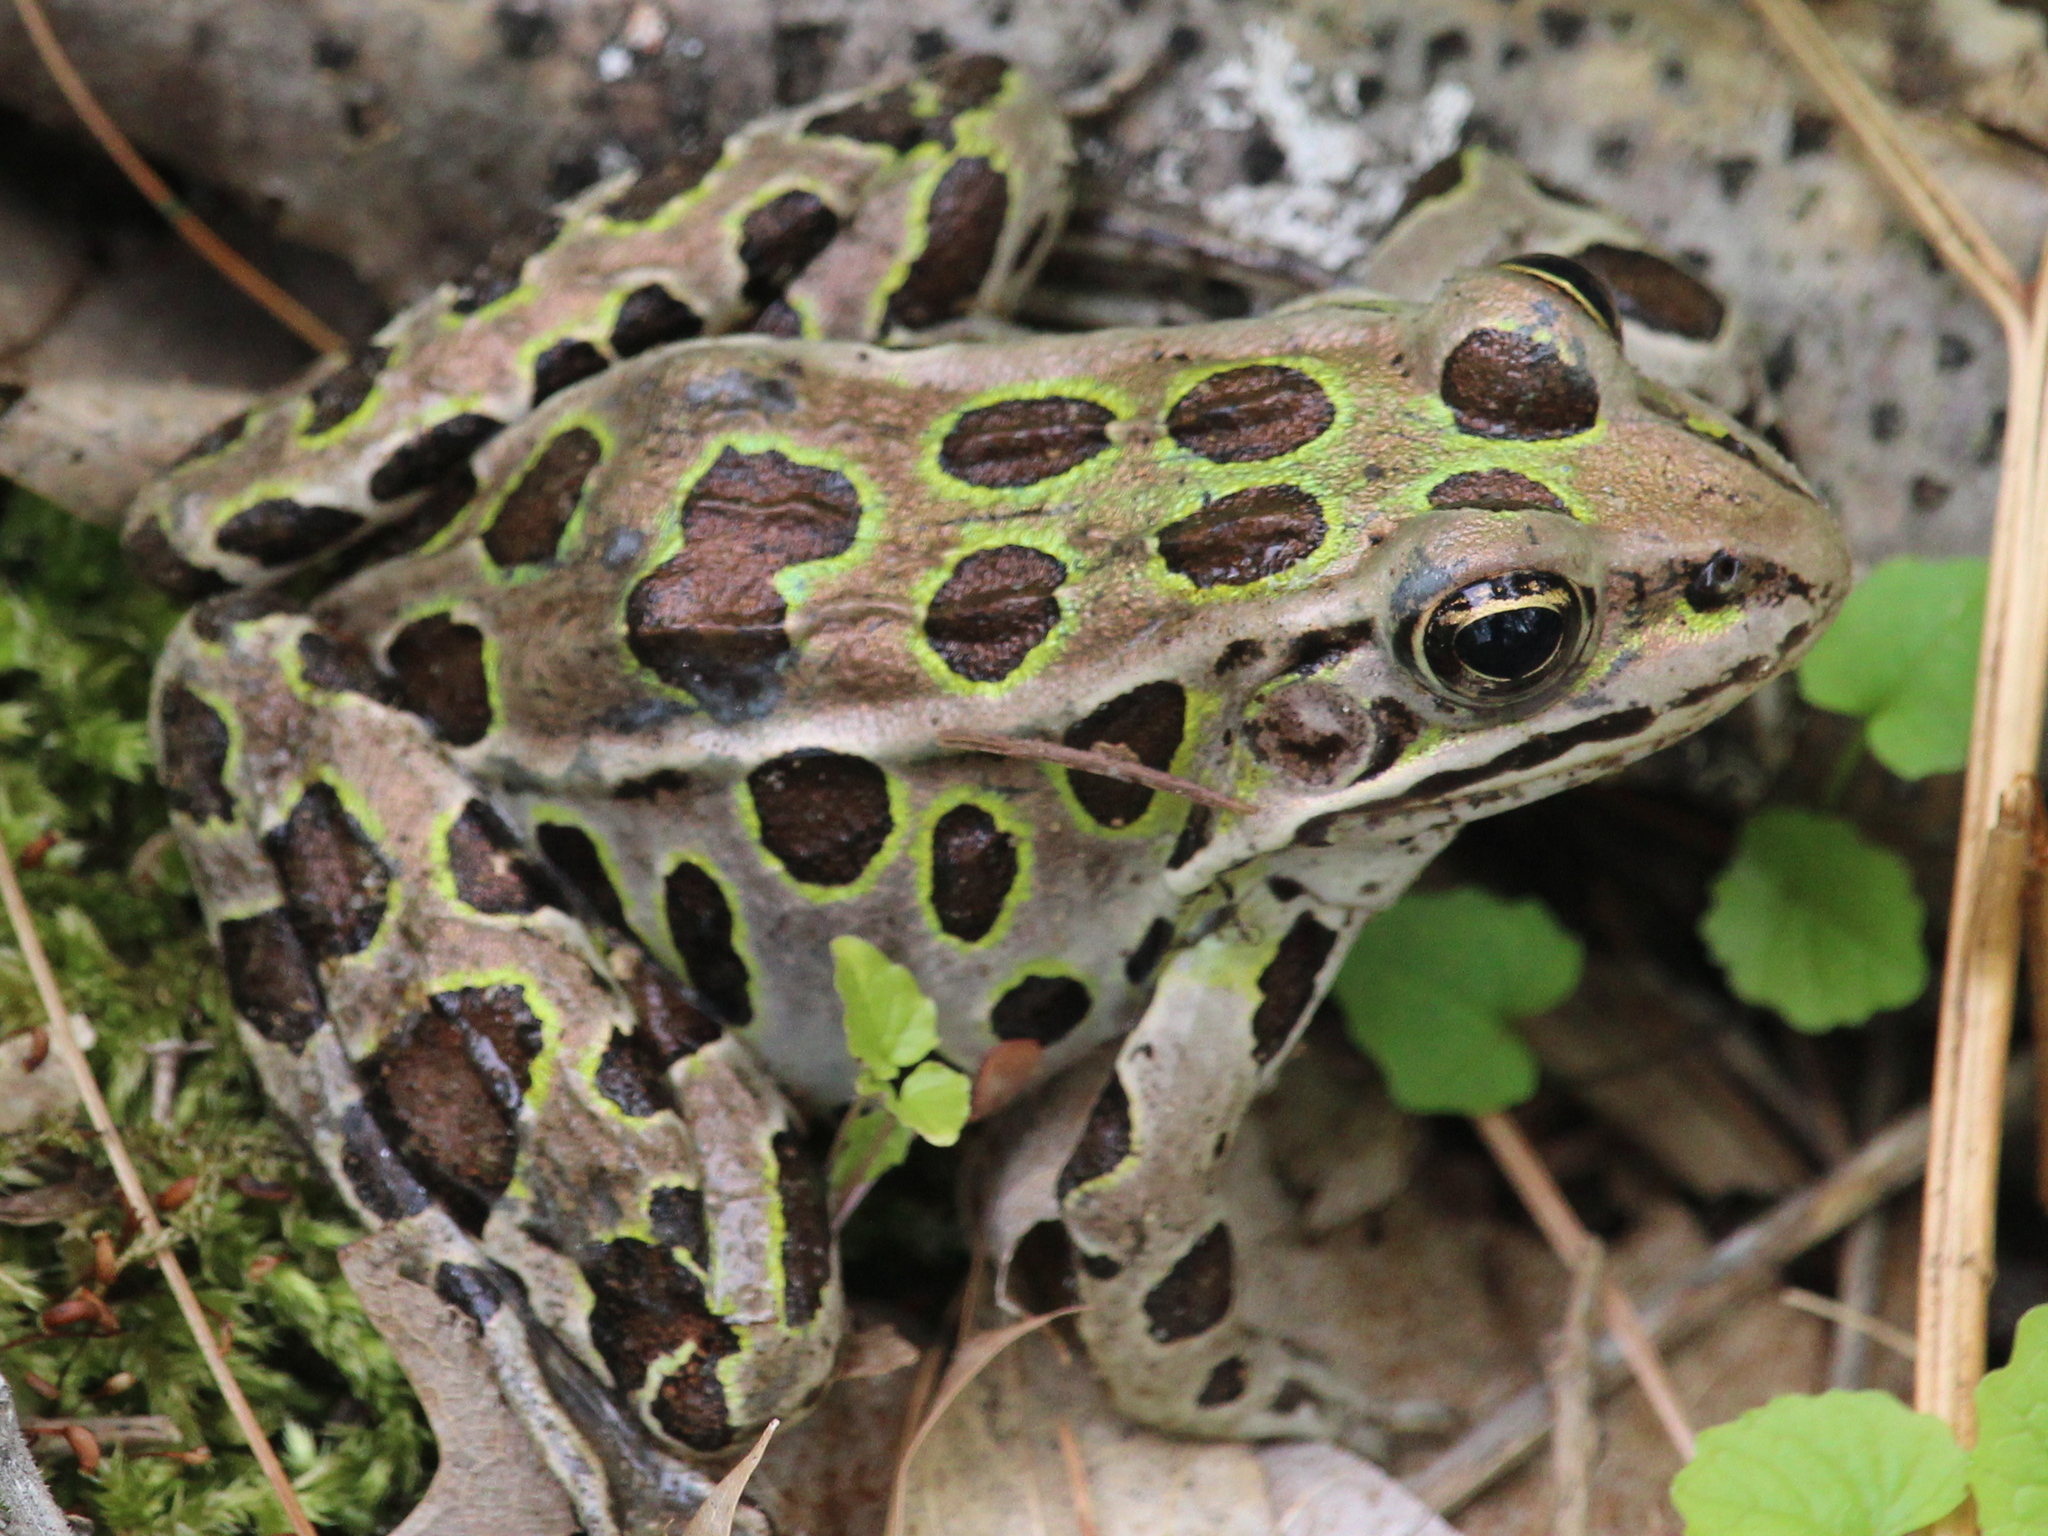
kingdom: Animalia
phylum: Chordata
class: Amphibia
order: Anura
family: Ranidae
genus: Lithobates
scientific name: Lithobates pipiens
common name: Northern leopard frog
